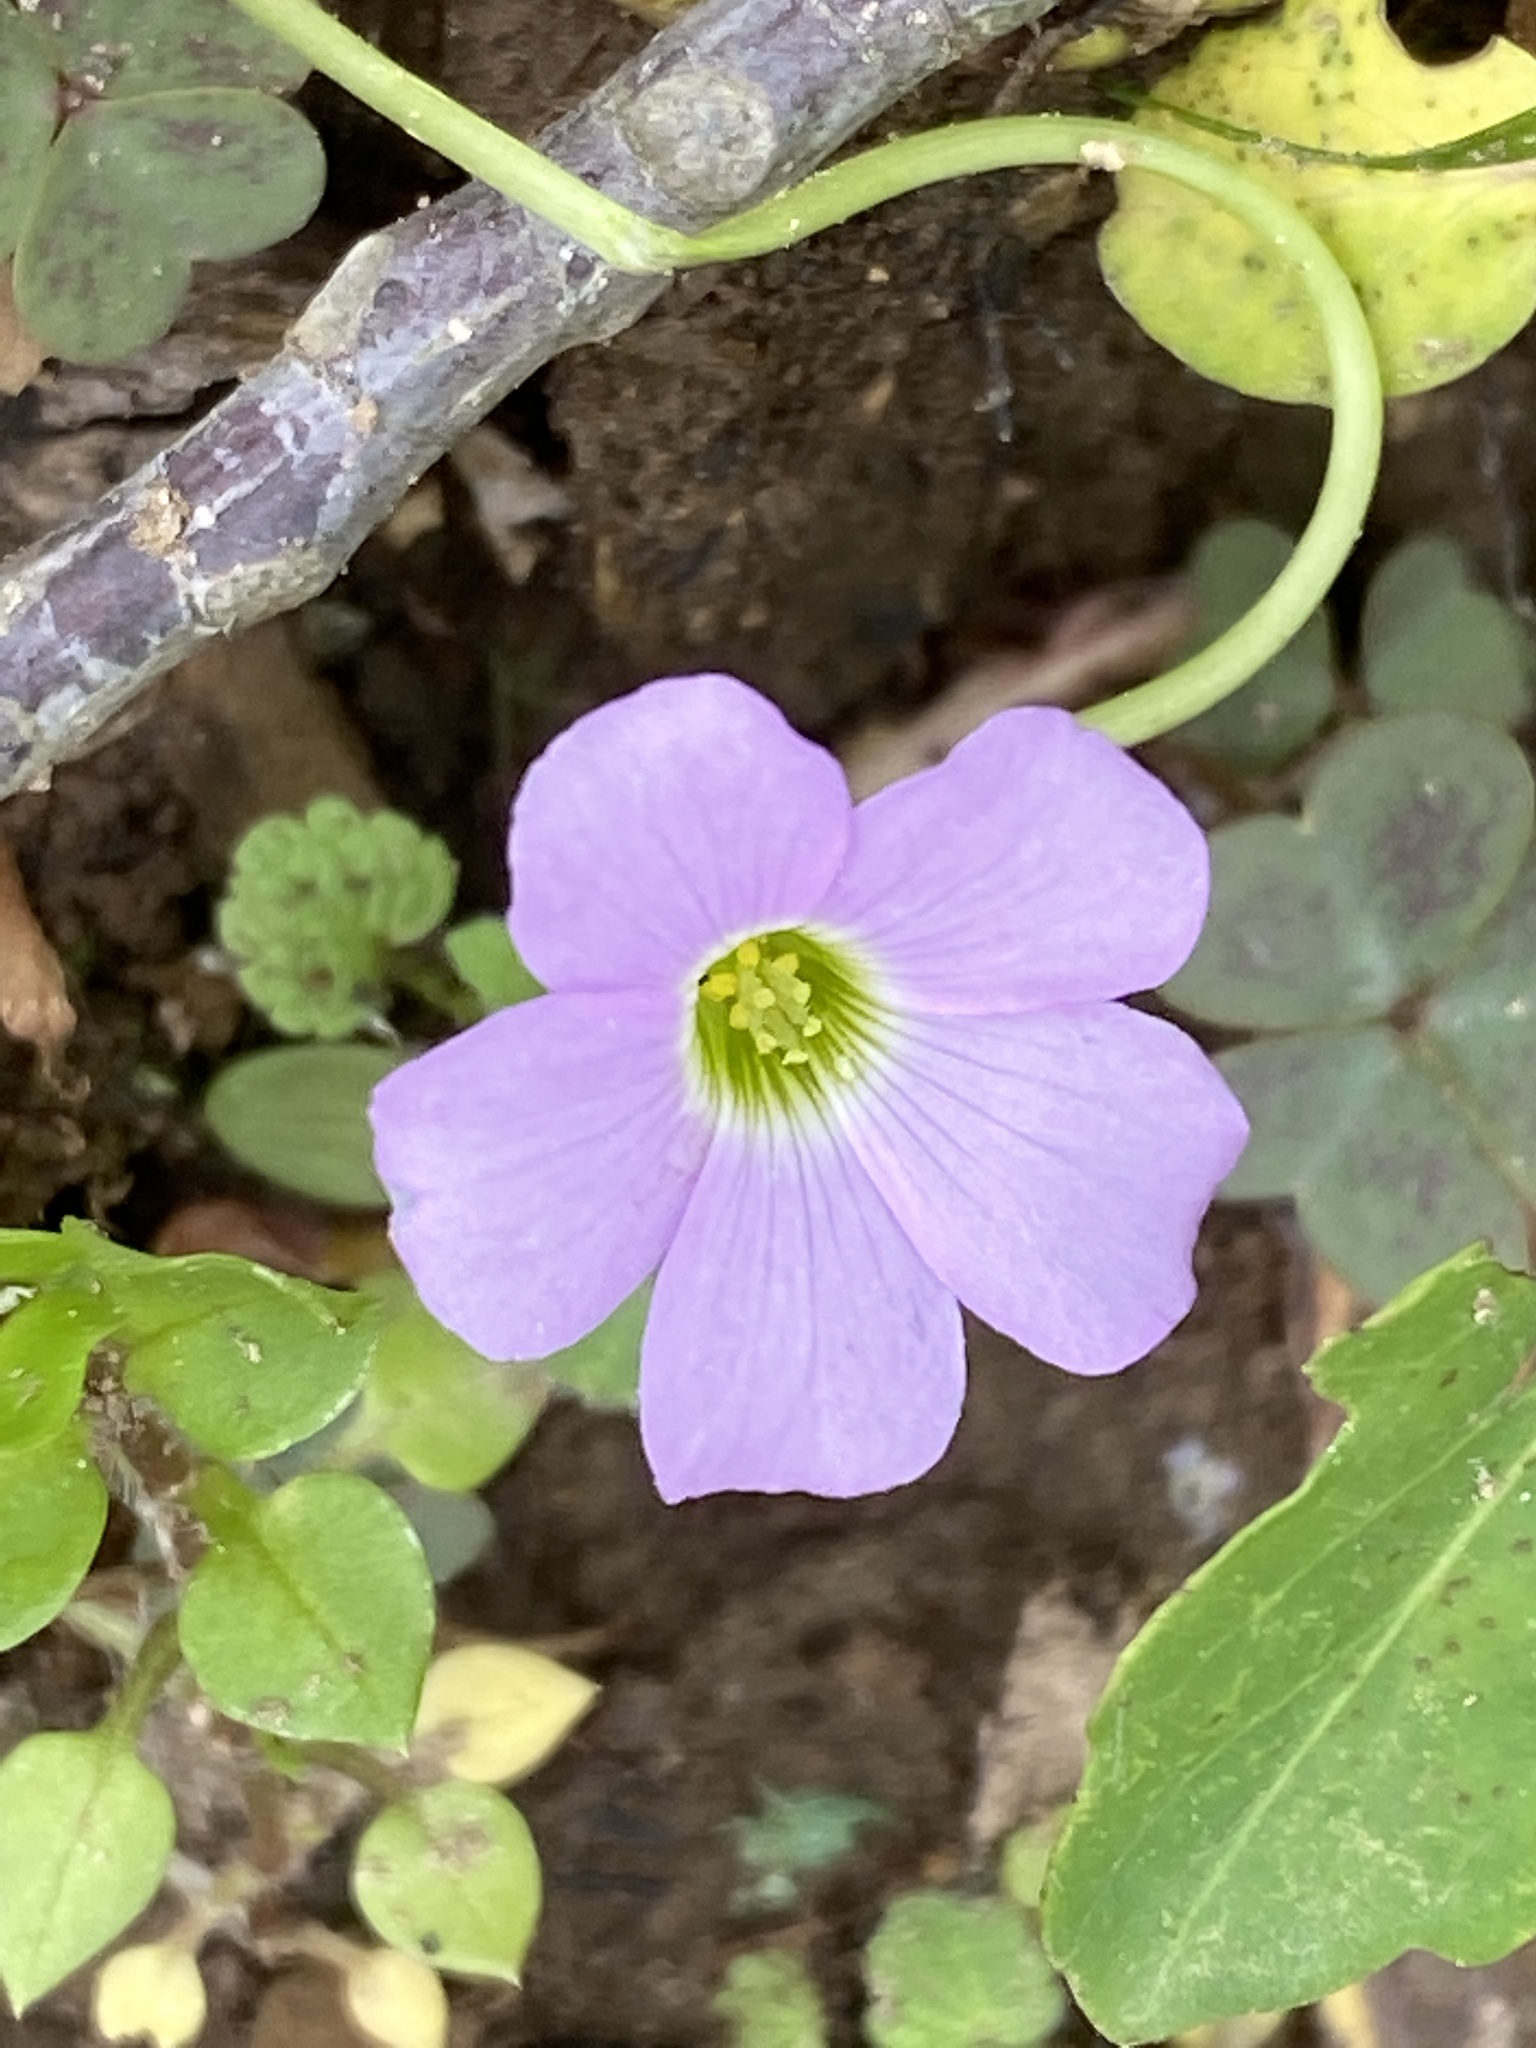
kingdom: Plantae
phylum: Tracheophyta
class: Magnoliopsida
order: Oxalidales
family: Oxalidaceae
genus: Oxalis
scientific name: Oxalis violacea
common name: Violet wood-sorrel
